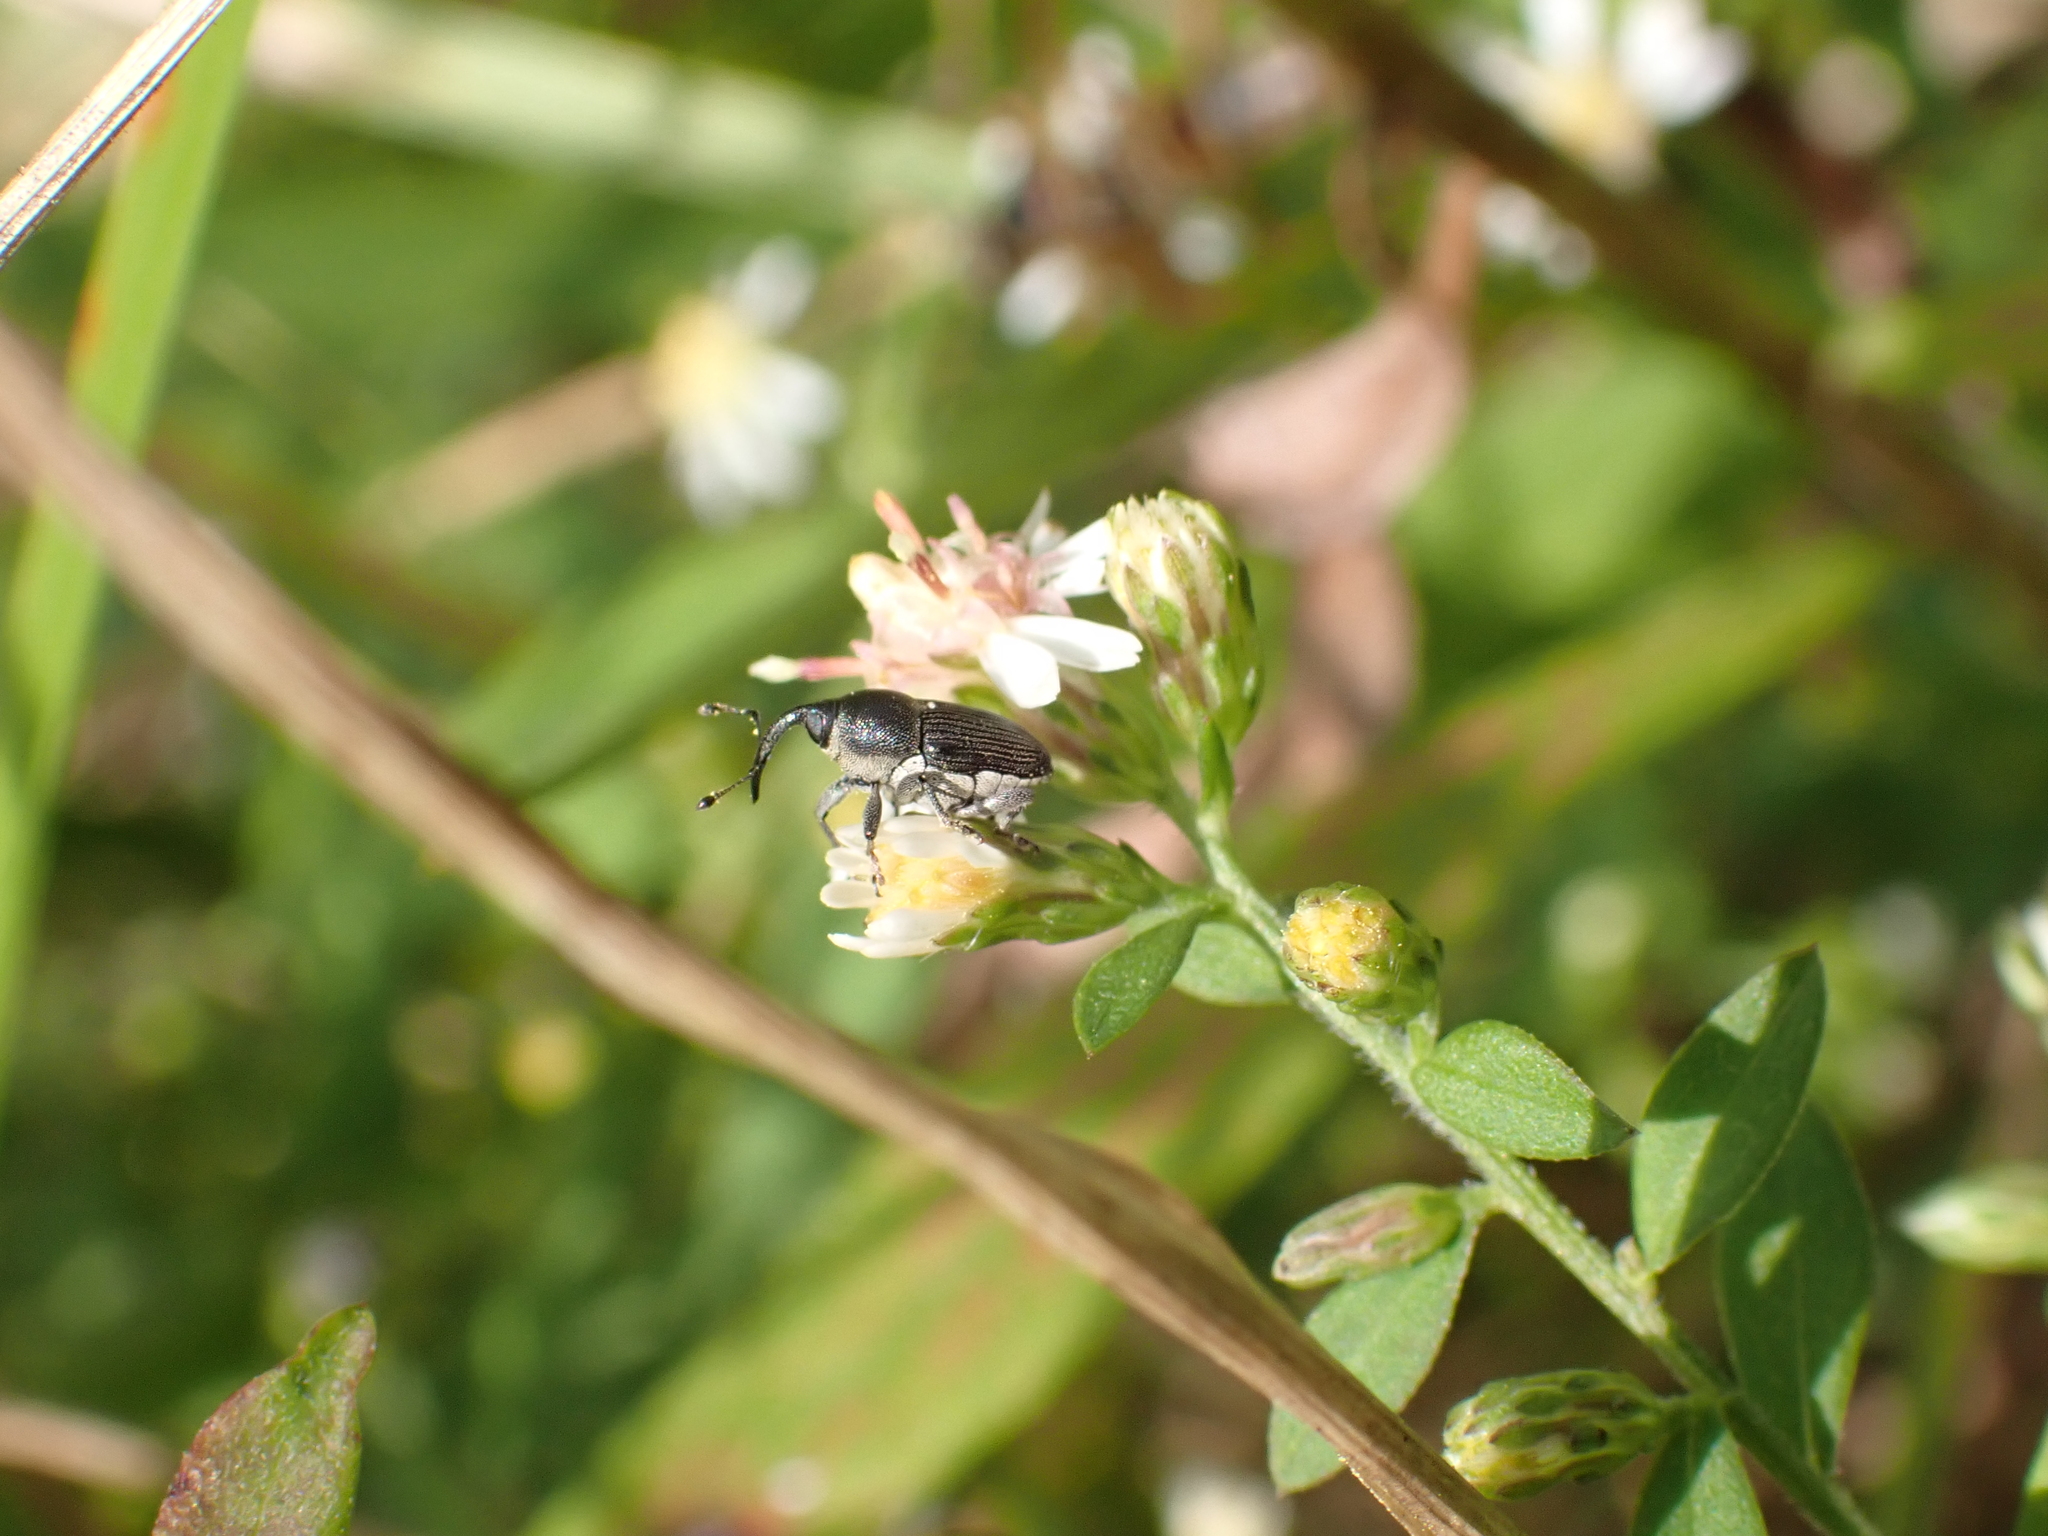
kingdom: Animalia
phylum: Arthropoda
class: Insecta
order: Coleoptera
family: Curculionidae
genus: Odontocorynus
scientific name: Odontocorynus salebrosus
